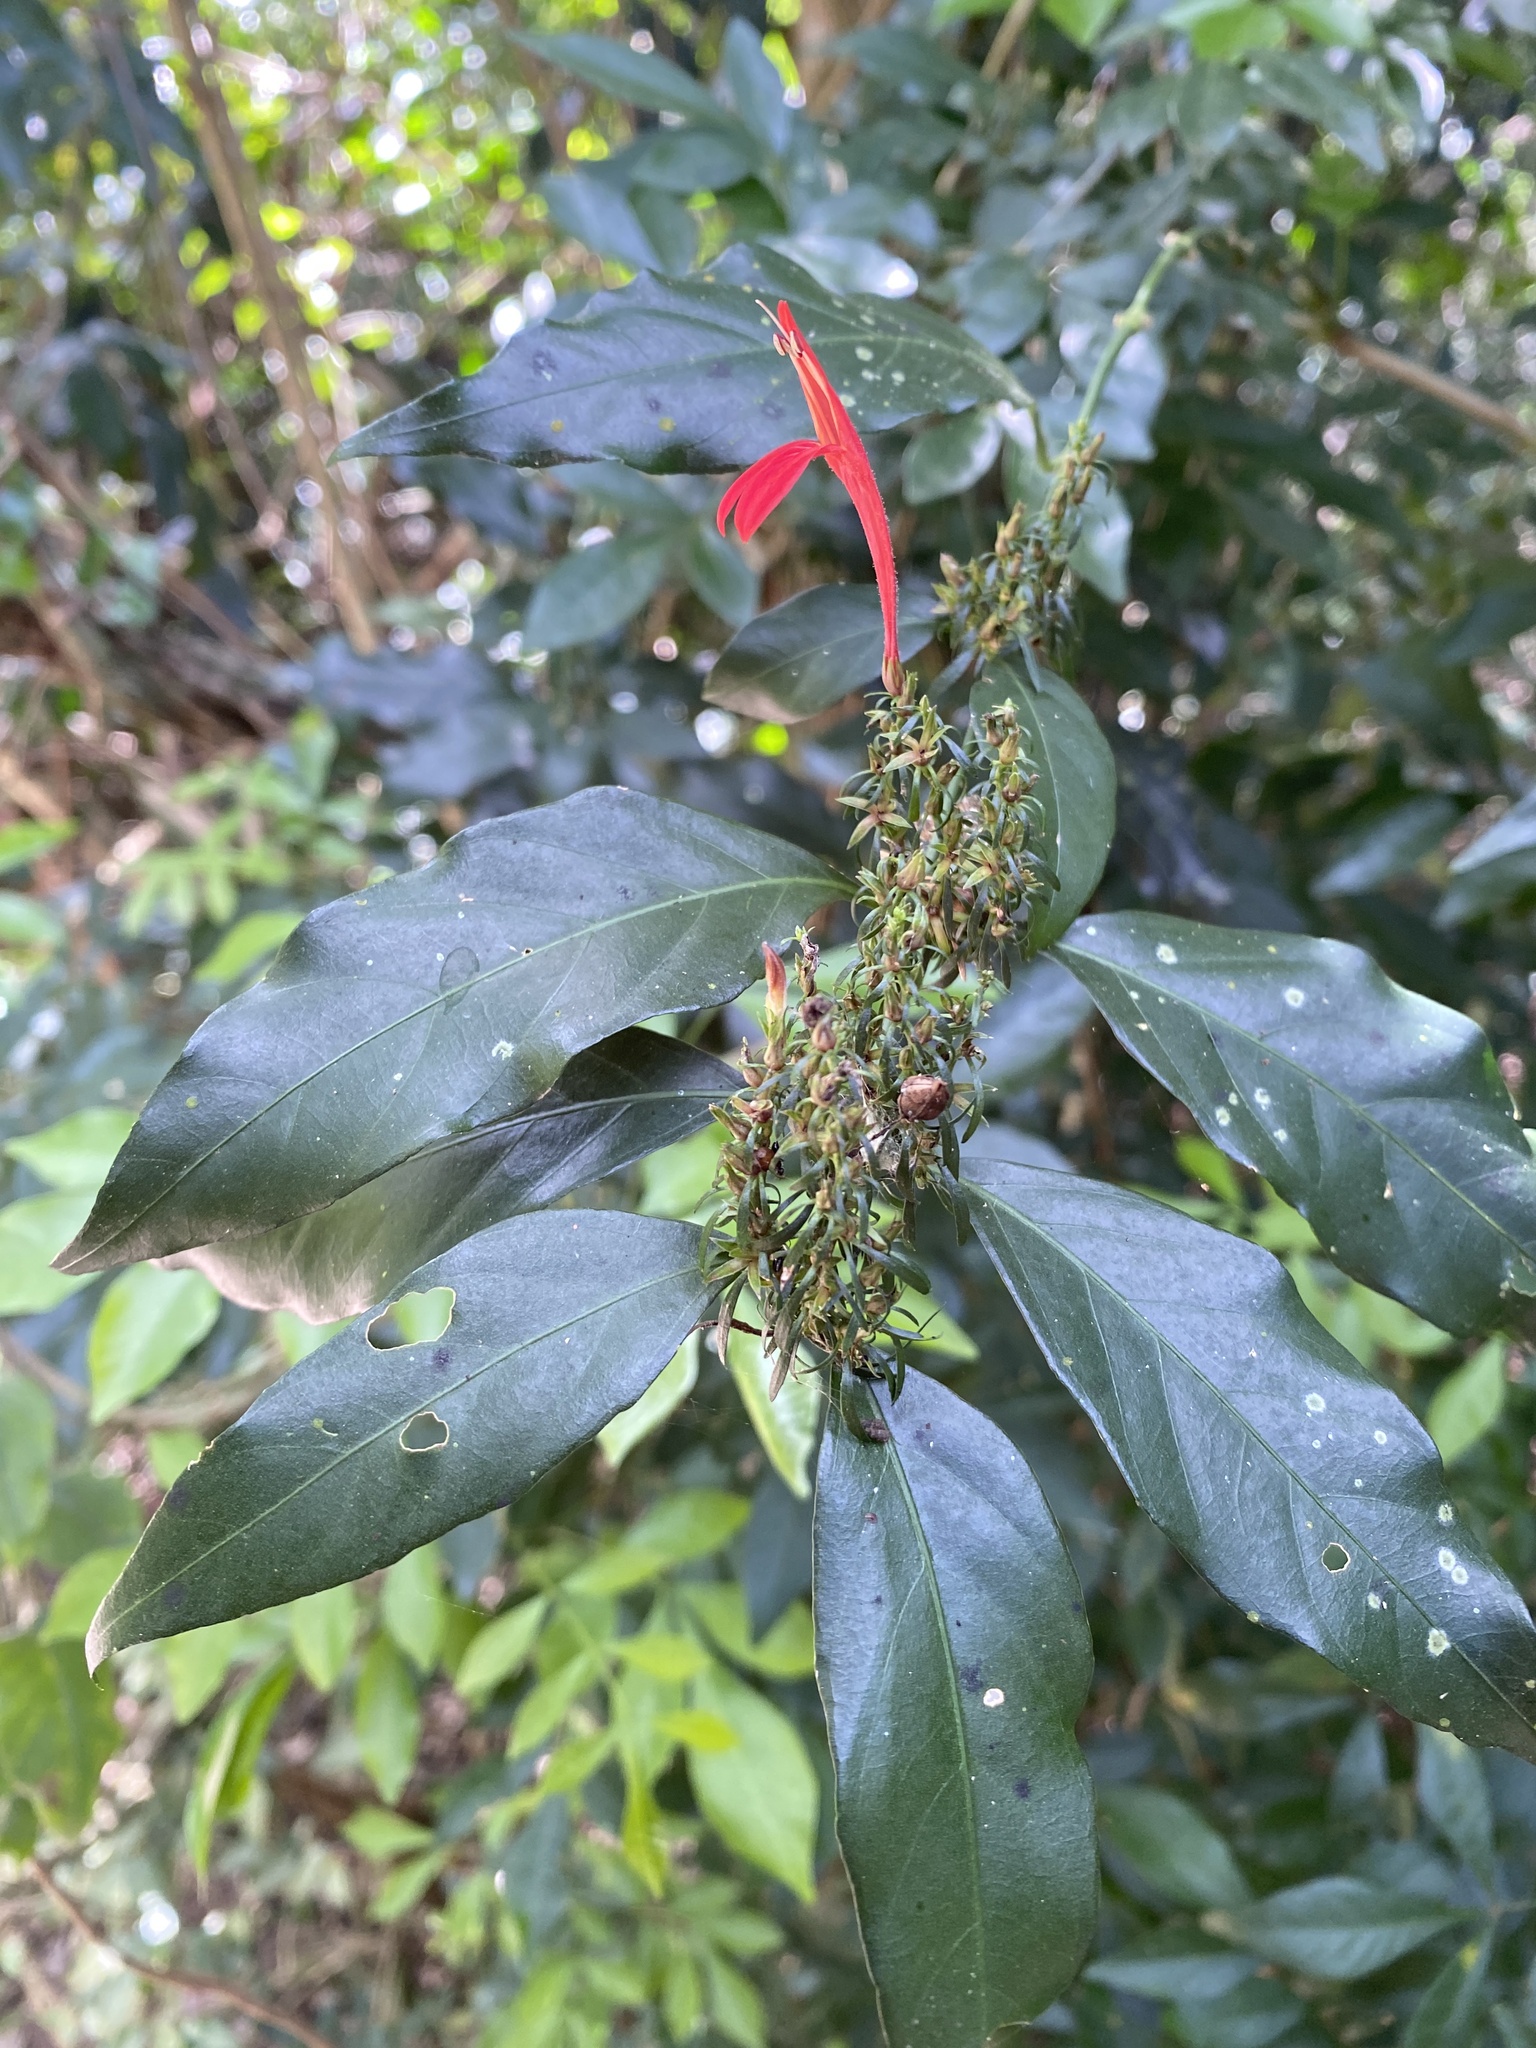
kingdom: Plantae
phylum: Tracheophyta
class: Magnoliopsida
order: Lamiales
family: Acanthaceae
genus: Justicia
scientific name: Justicia brasiliana
